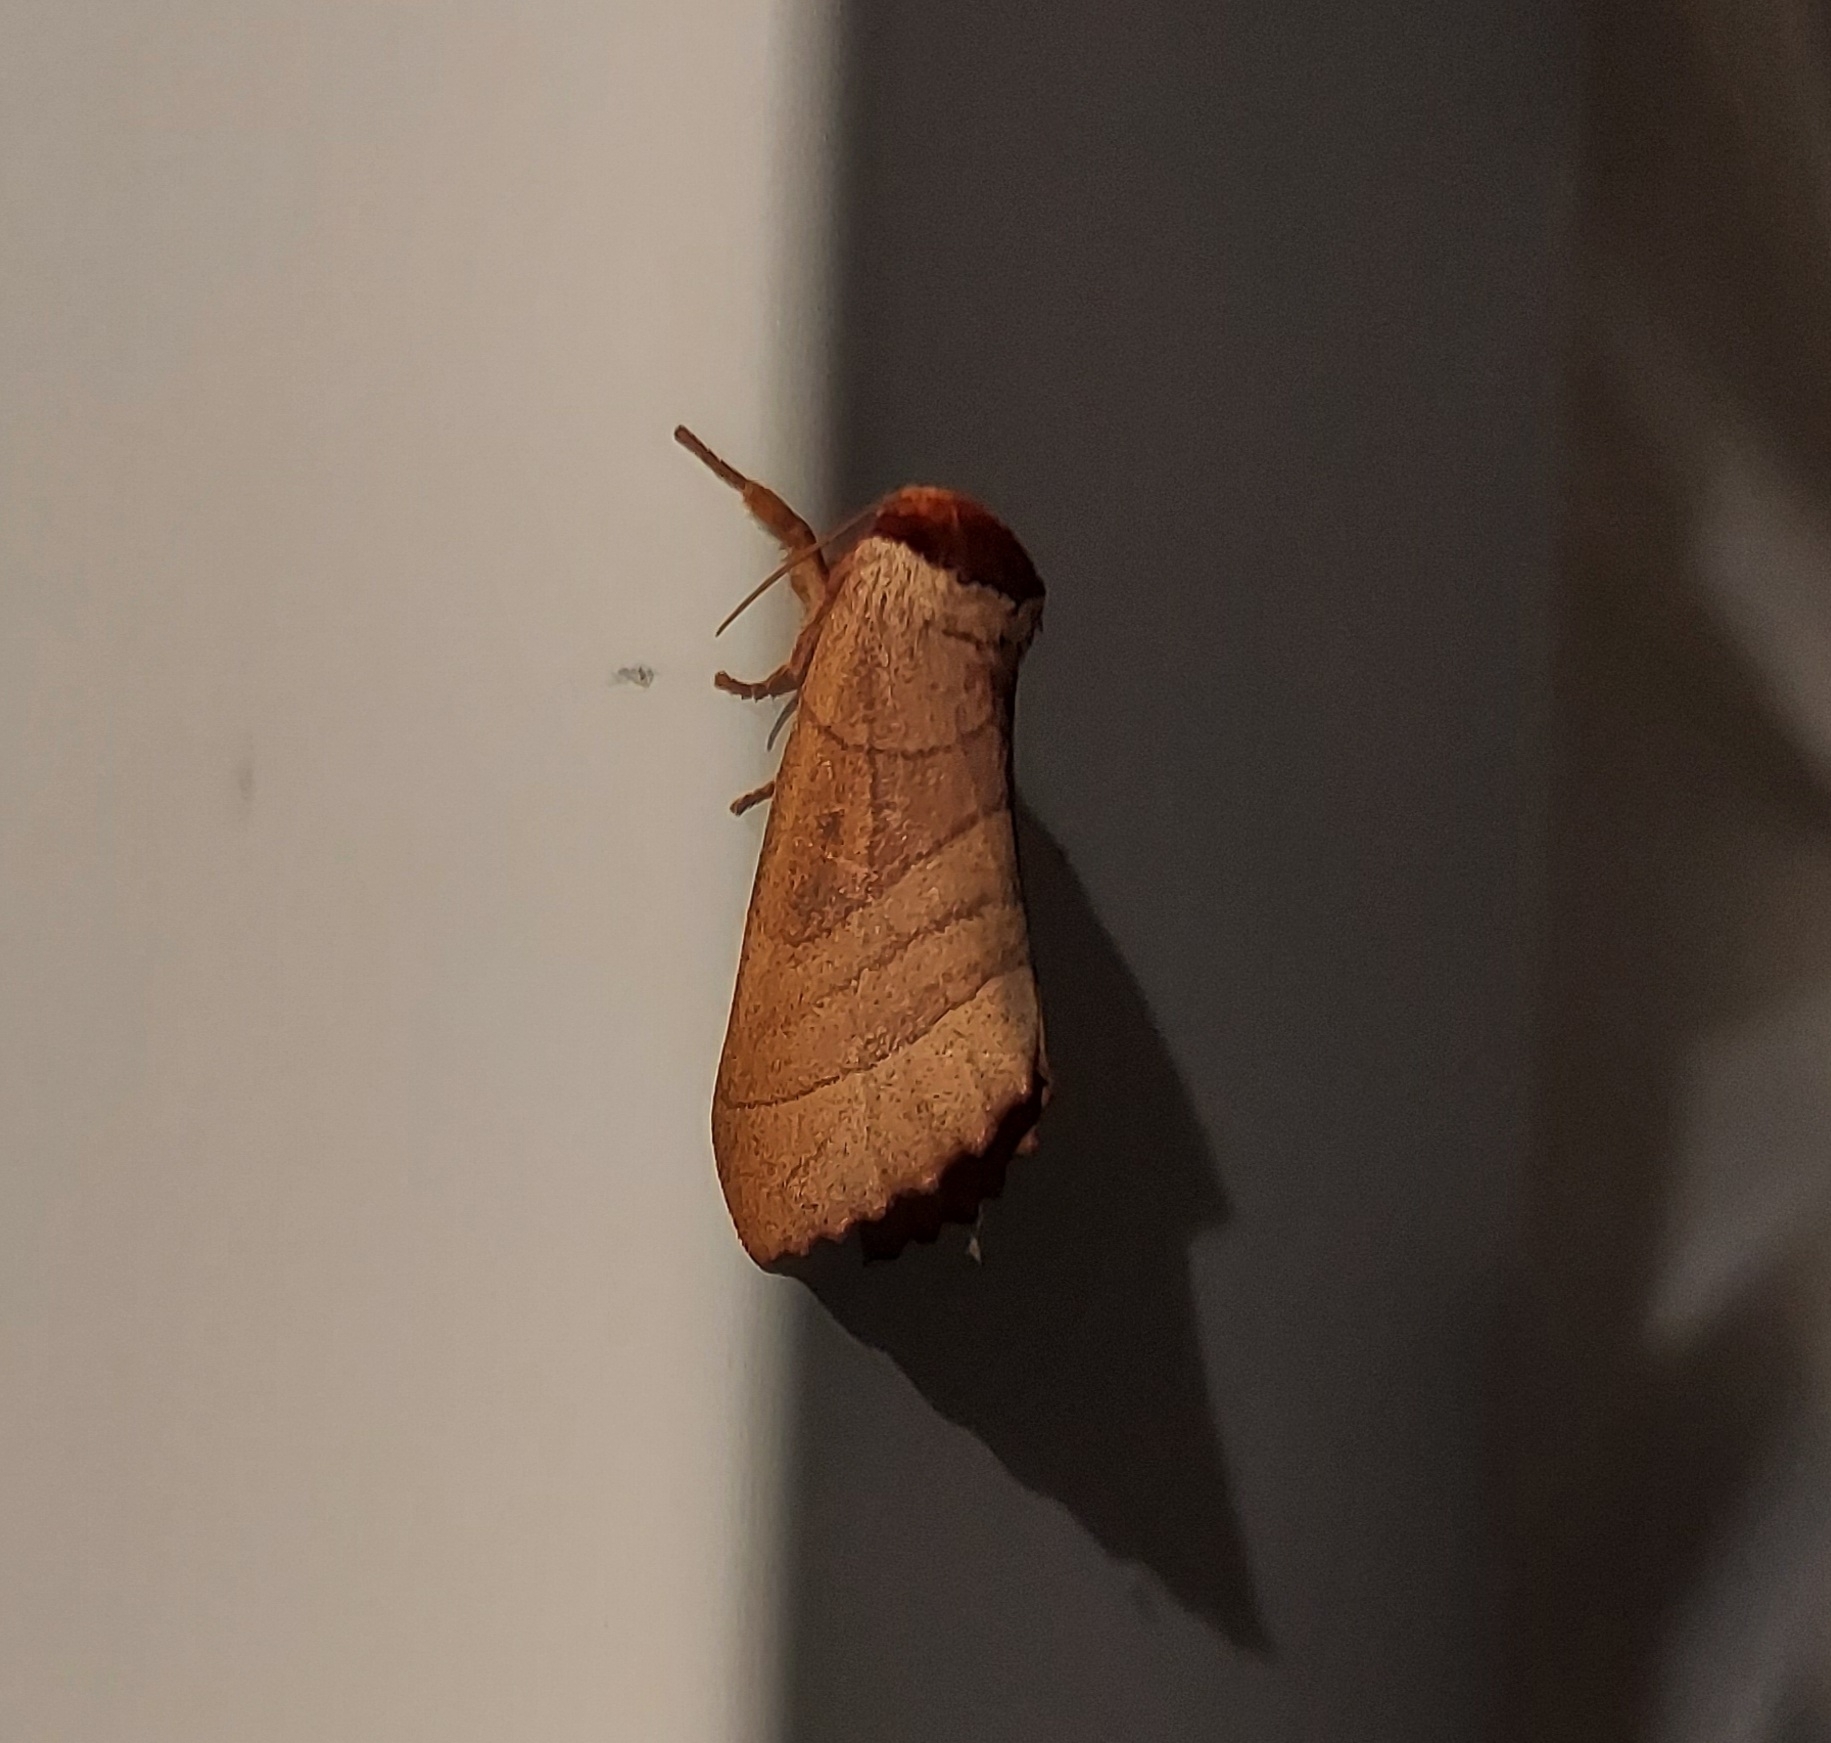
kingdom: Animalia
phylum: Arthropoda
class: Insecta
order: Lepidoptera
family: Notodontidae
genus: Datana
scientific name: Datana ministra
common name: Yellow-necked caterpillar moth
